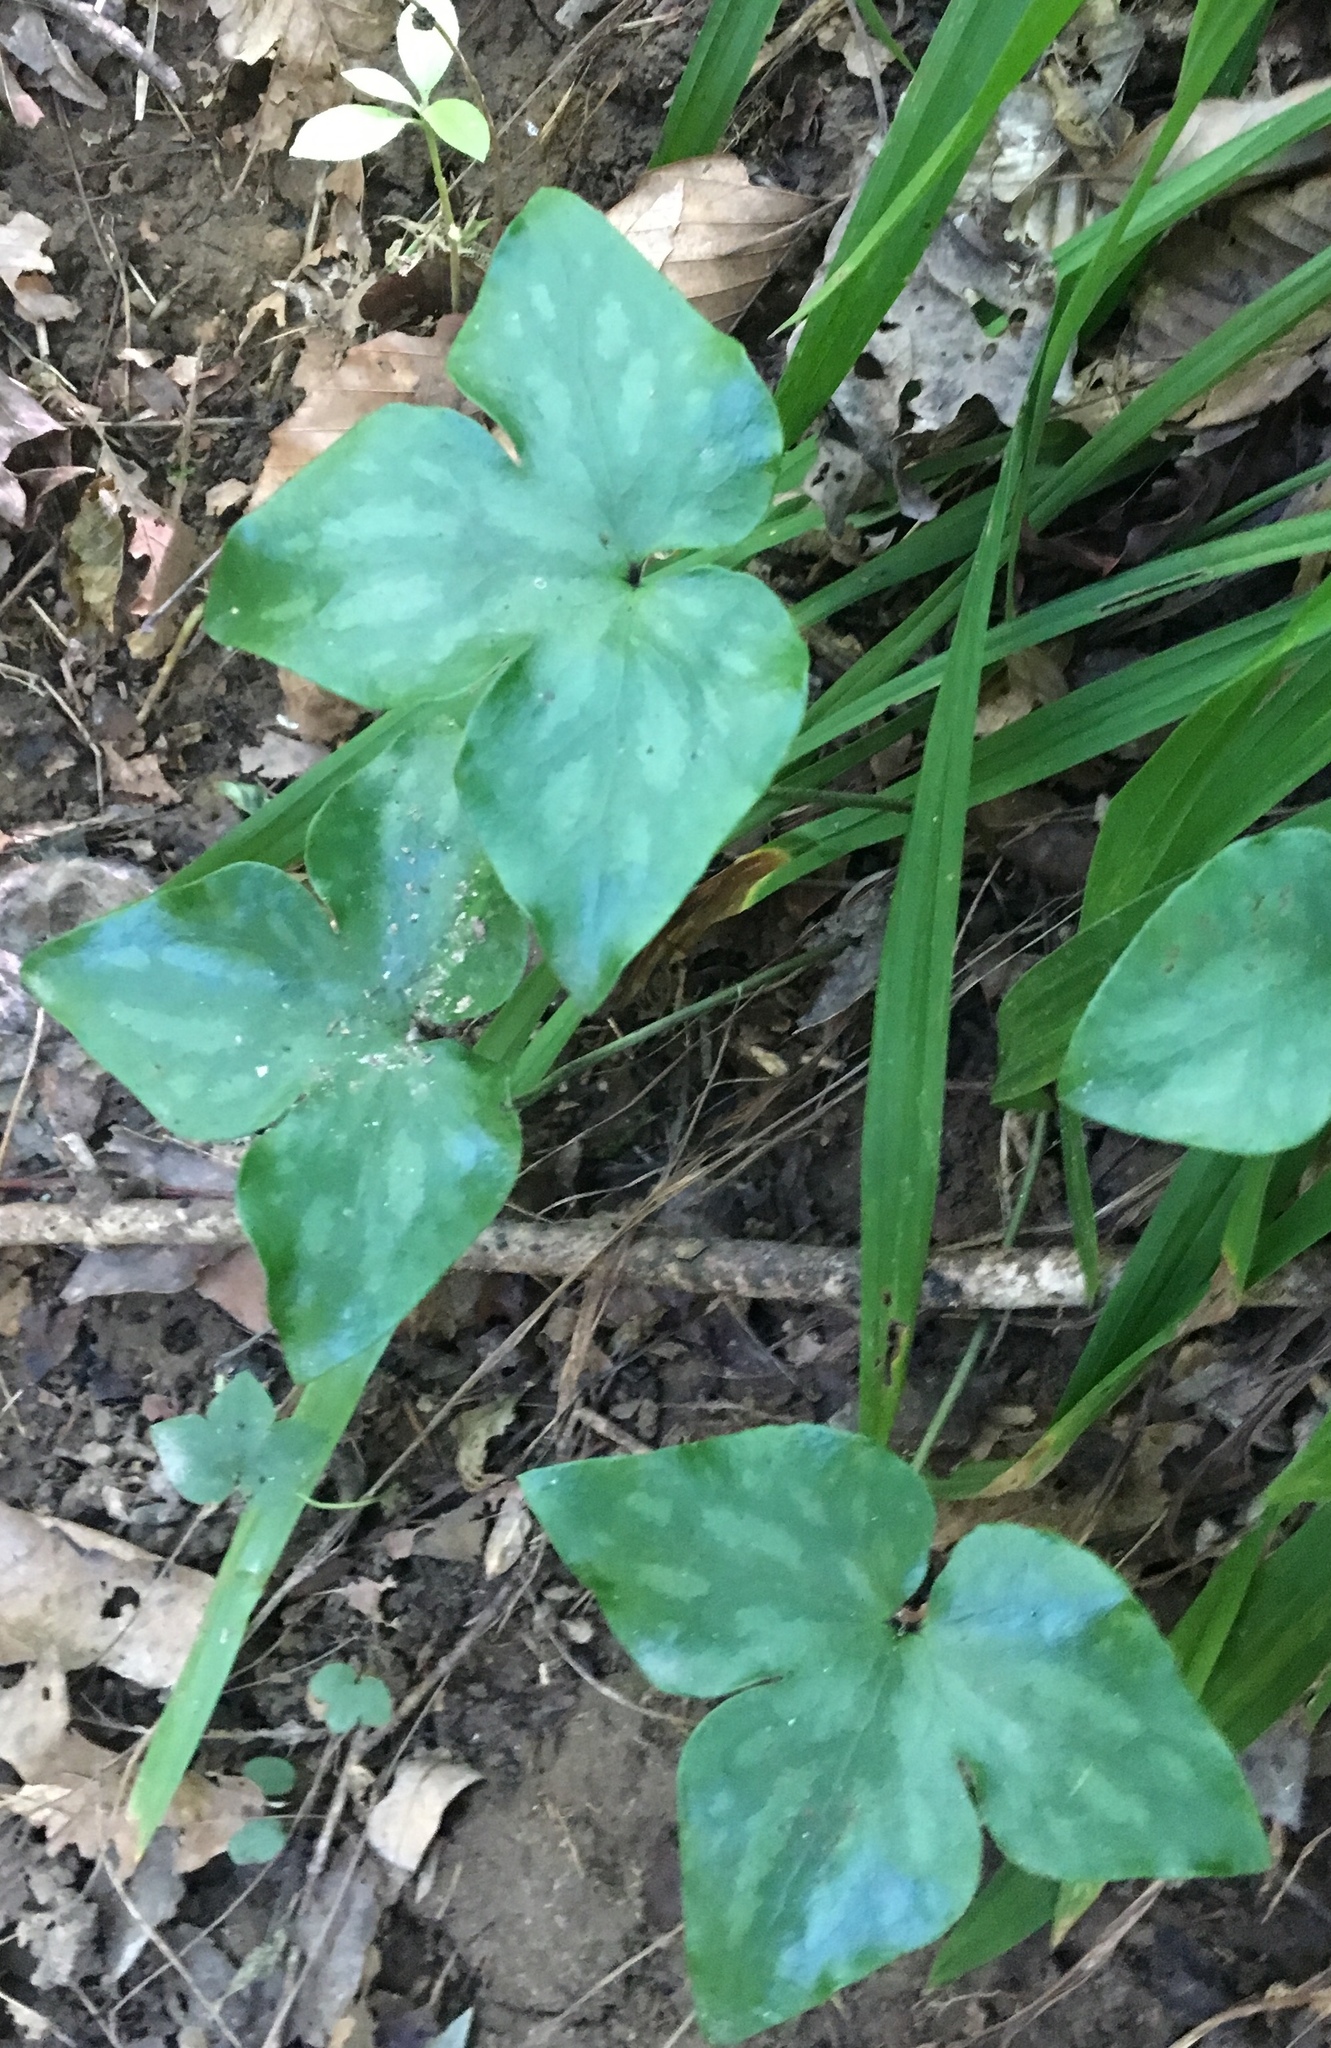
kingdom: Plantae
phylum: Tracheophyta
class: Magnoliopsida
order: Ranunculales
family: Ranunculaceae
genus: Hepatica
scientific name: Hepatica acutiloba
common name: Sharp-lobed hepatica
